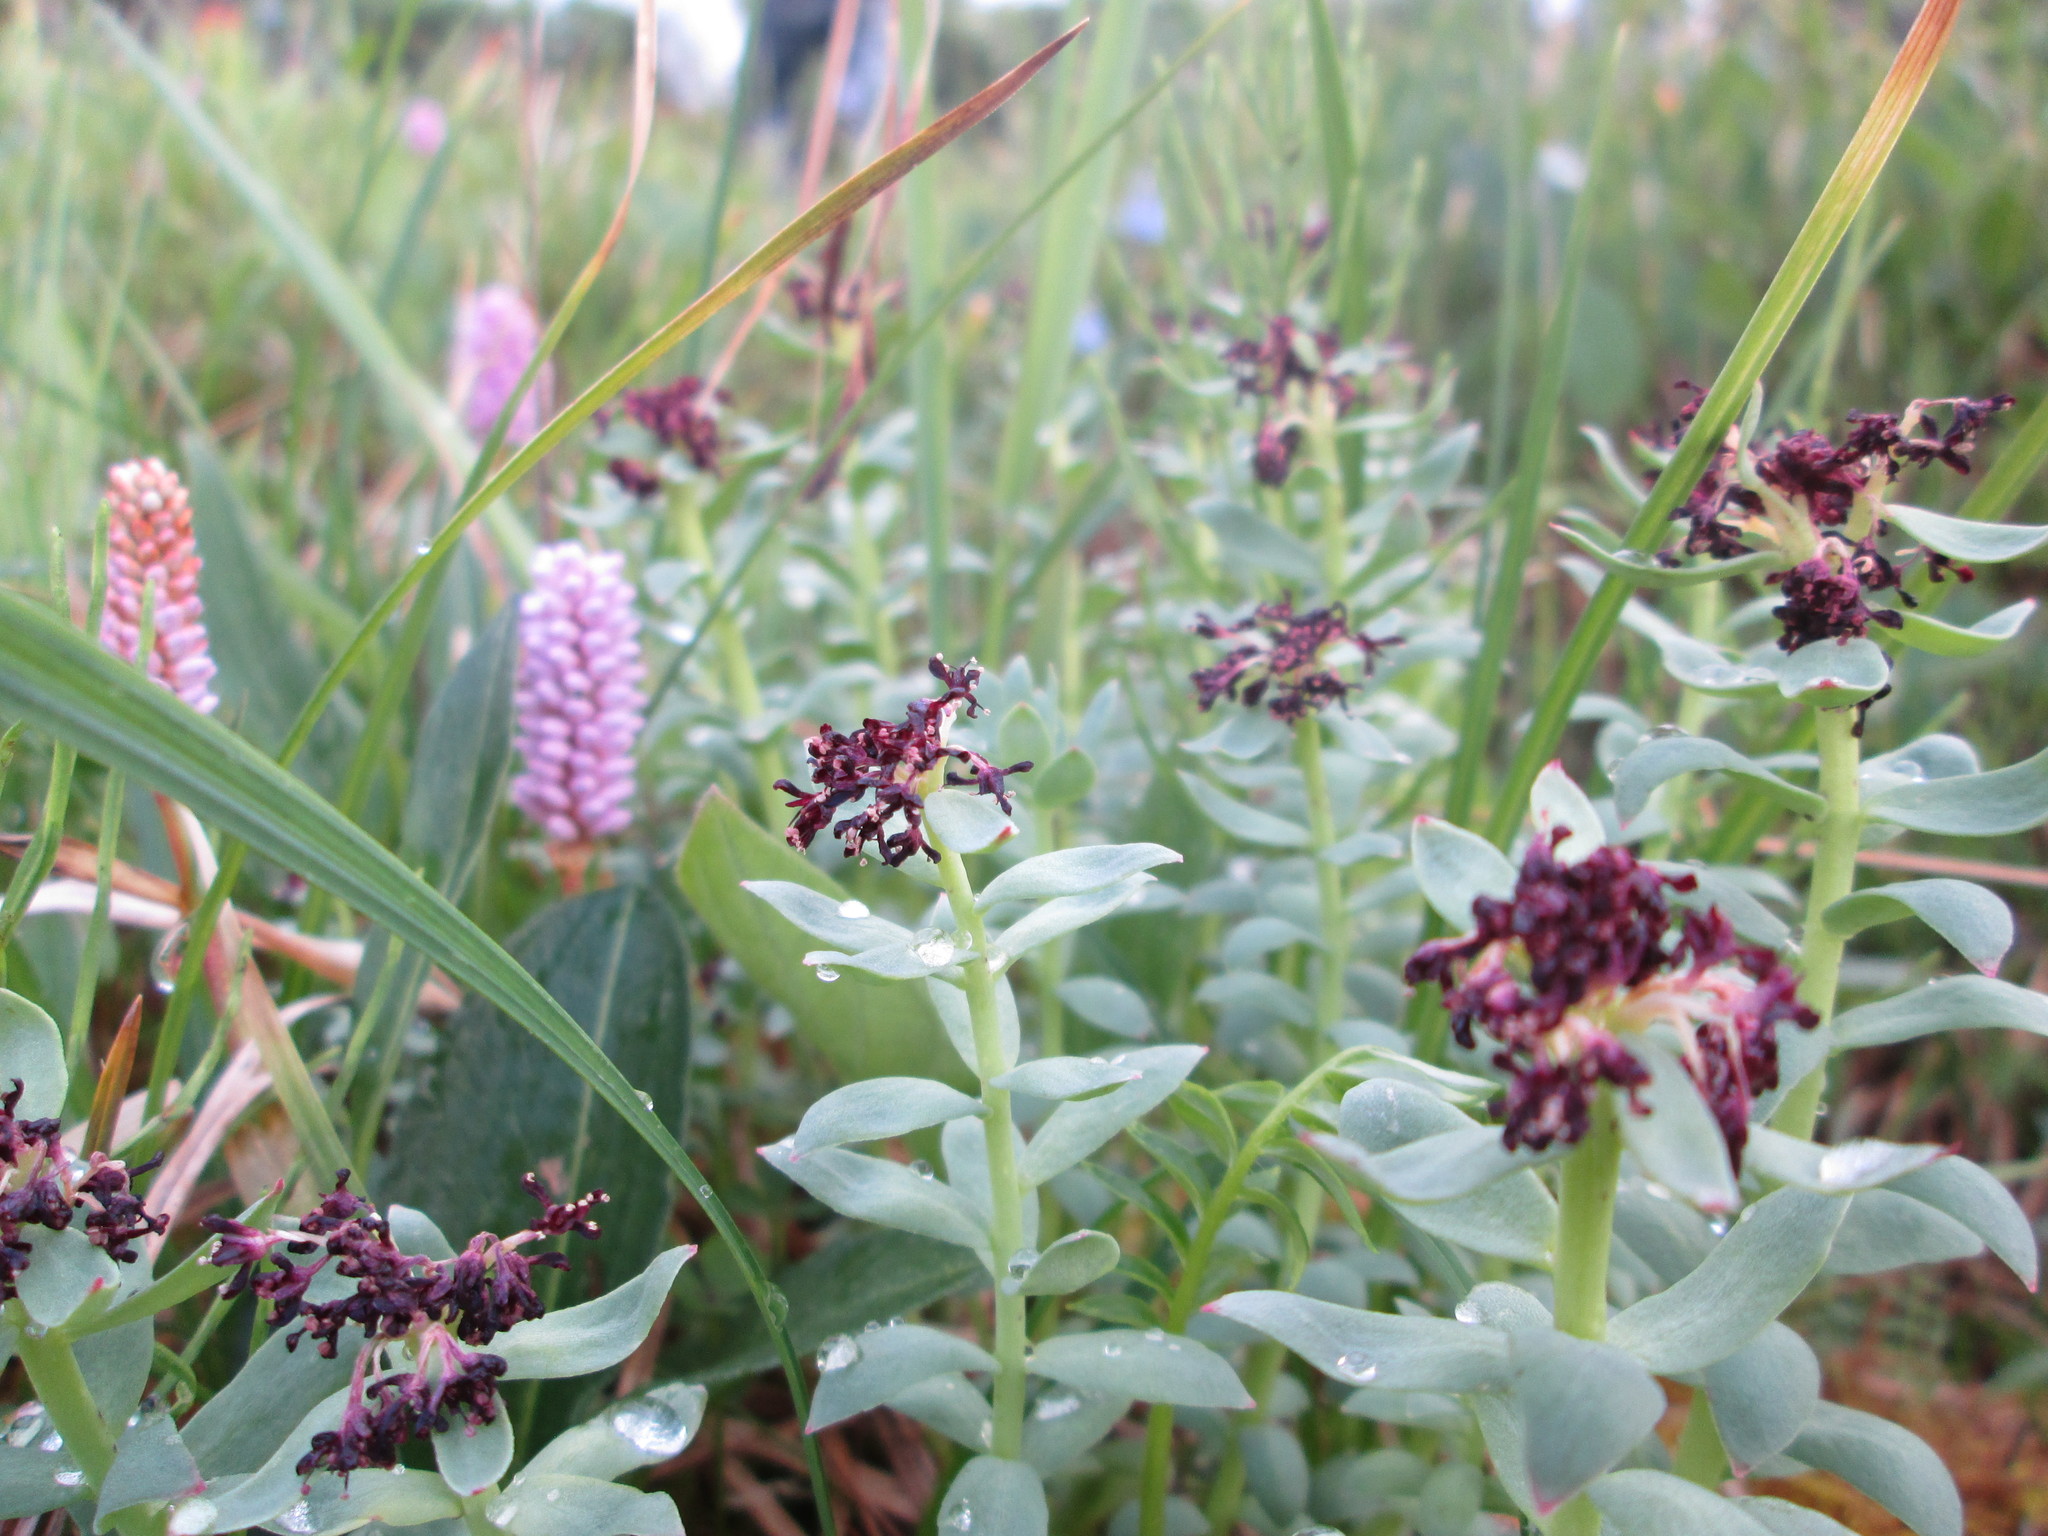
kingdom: Plantae
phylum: Tracheophyta
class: Magnoliopsida
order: Saxifragales
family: Crassulaceae
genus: Rhodiola
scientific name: Rhodiola integrifolia
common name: Western roseroot
